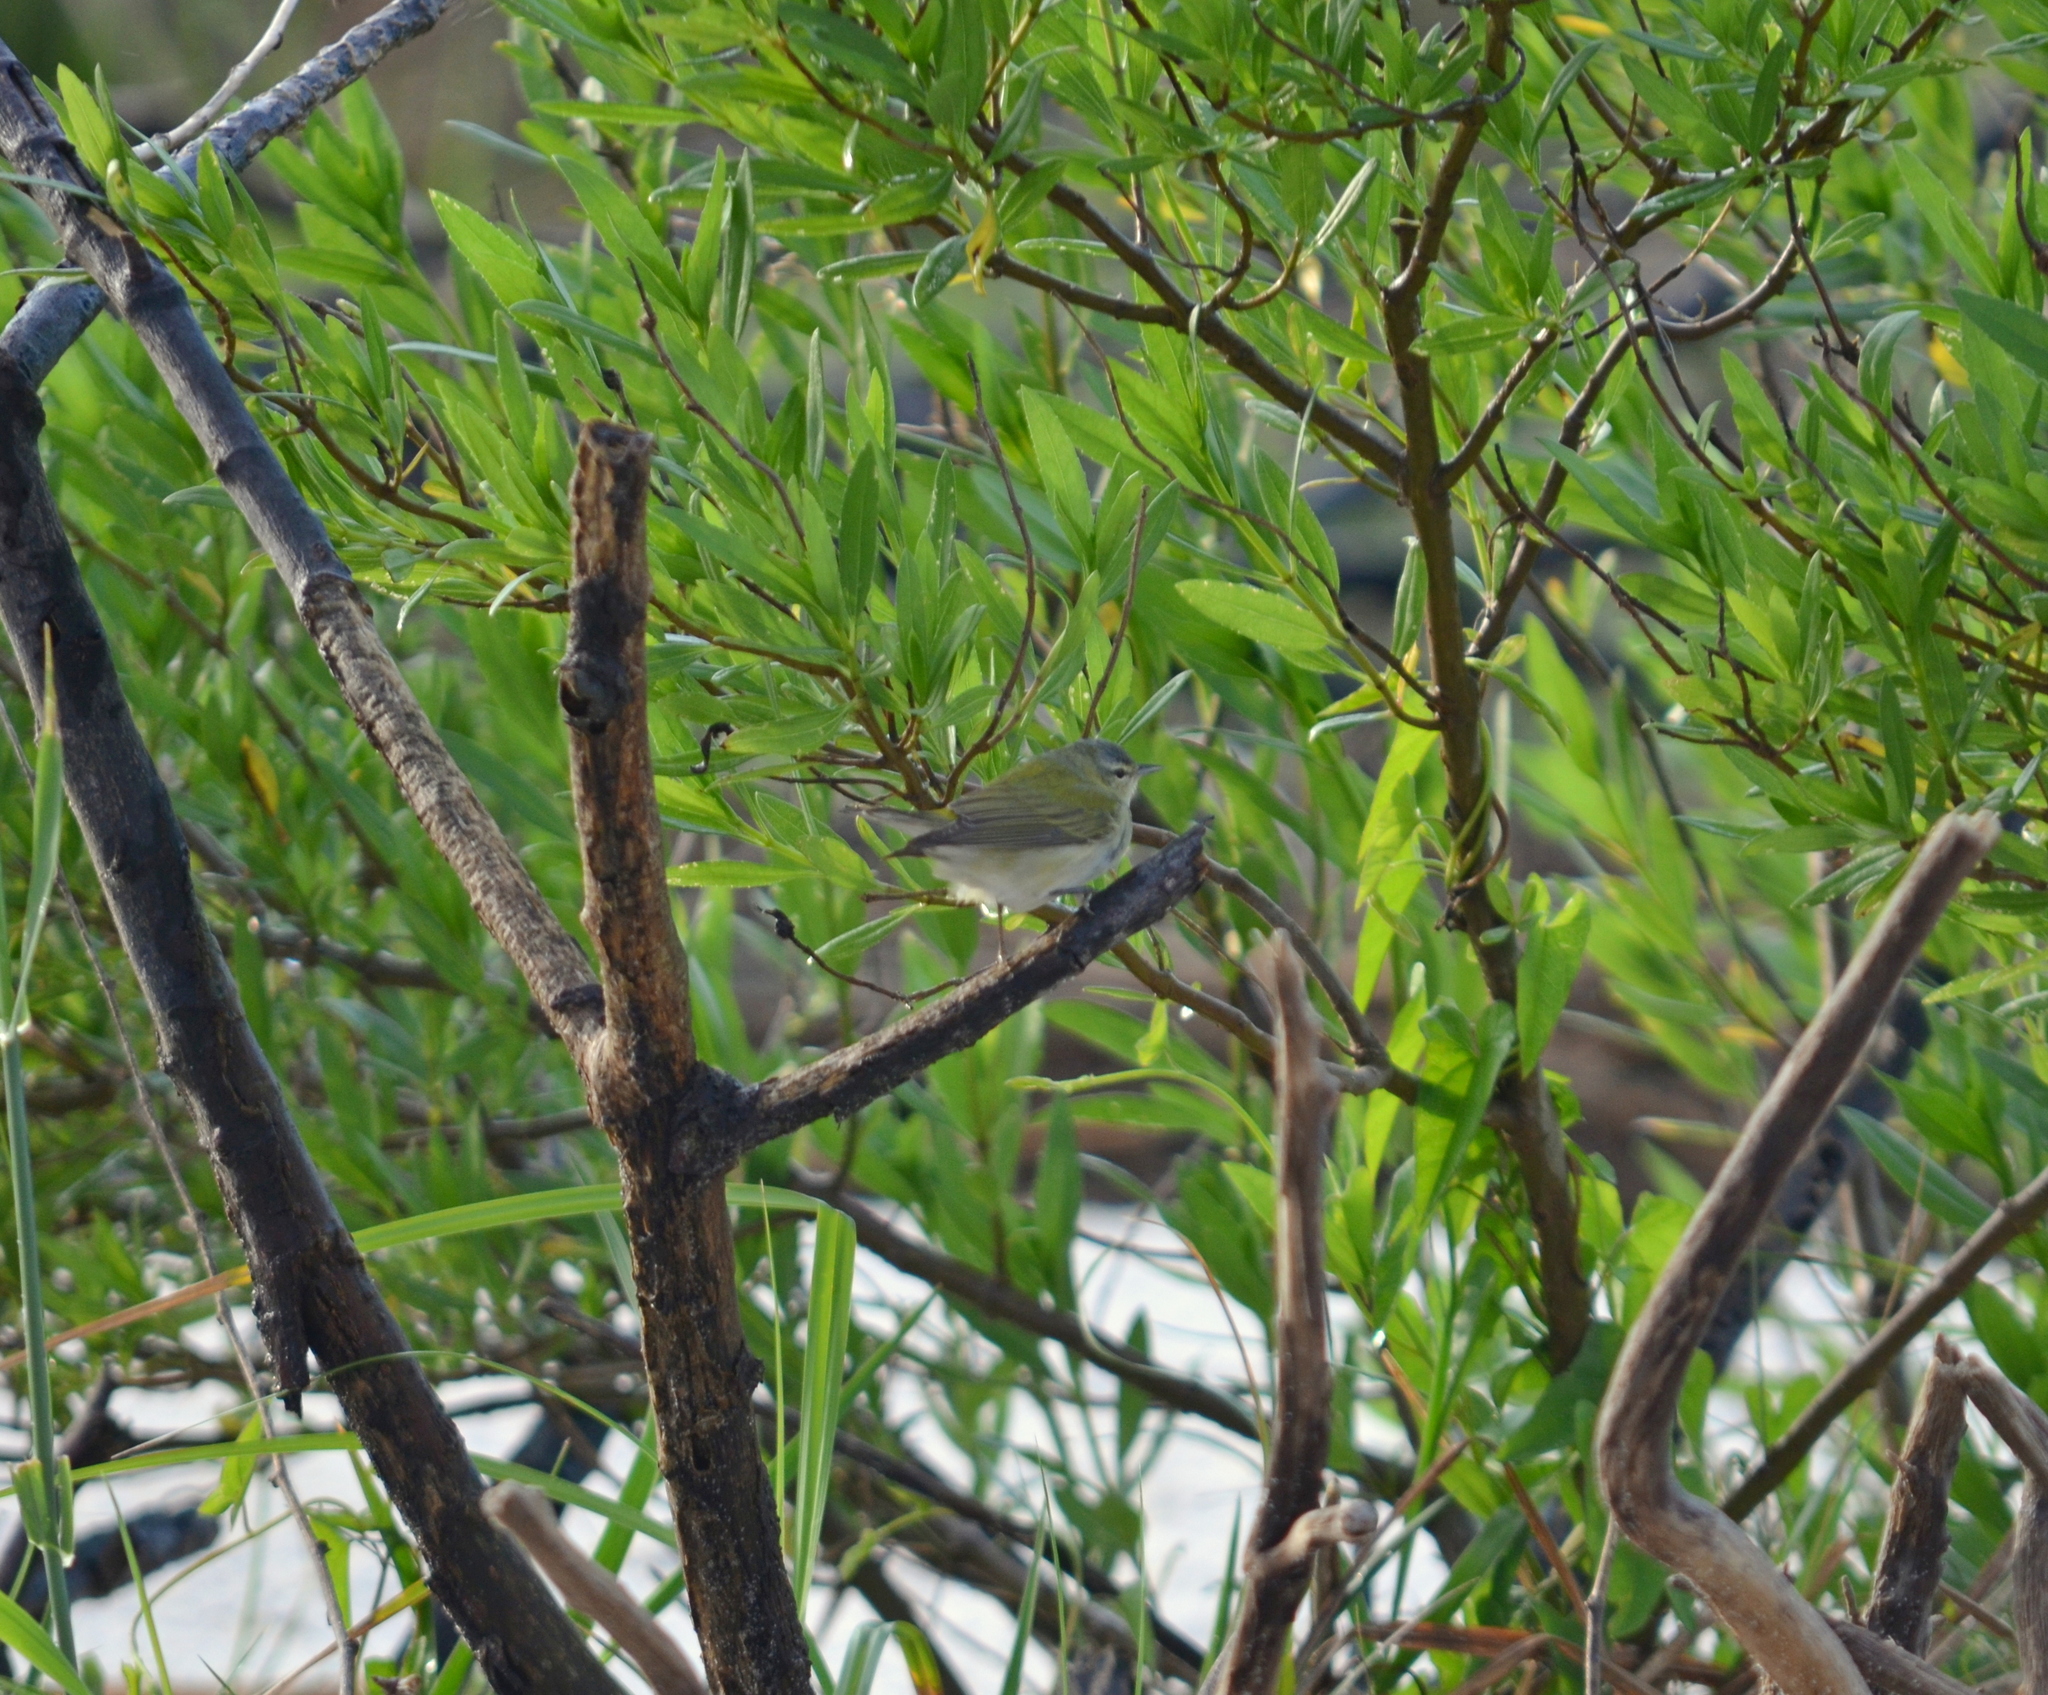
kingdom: Animalia
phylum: Chordata
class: Aves
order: Passeriformes
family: Parulidae
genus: Leiothlypis
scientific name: Leiothlypis peregrina
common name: Tennessee warbler
